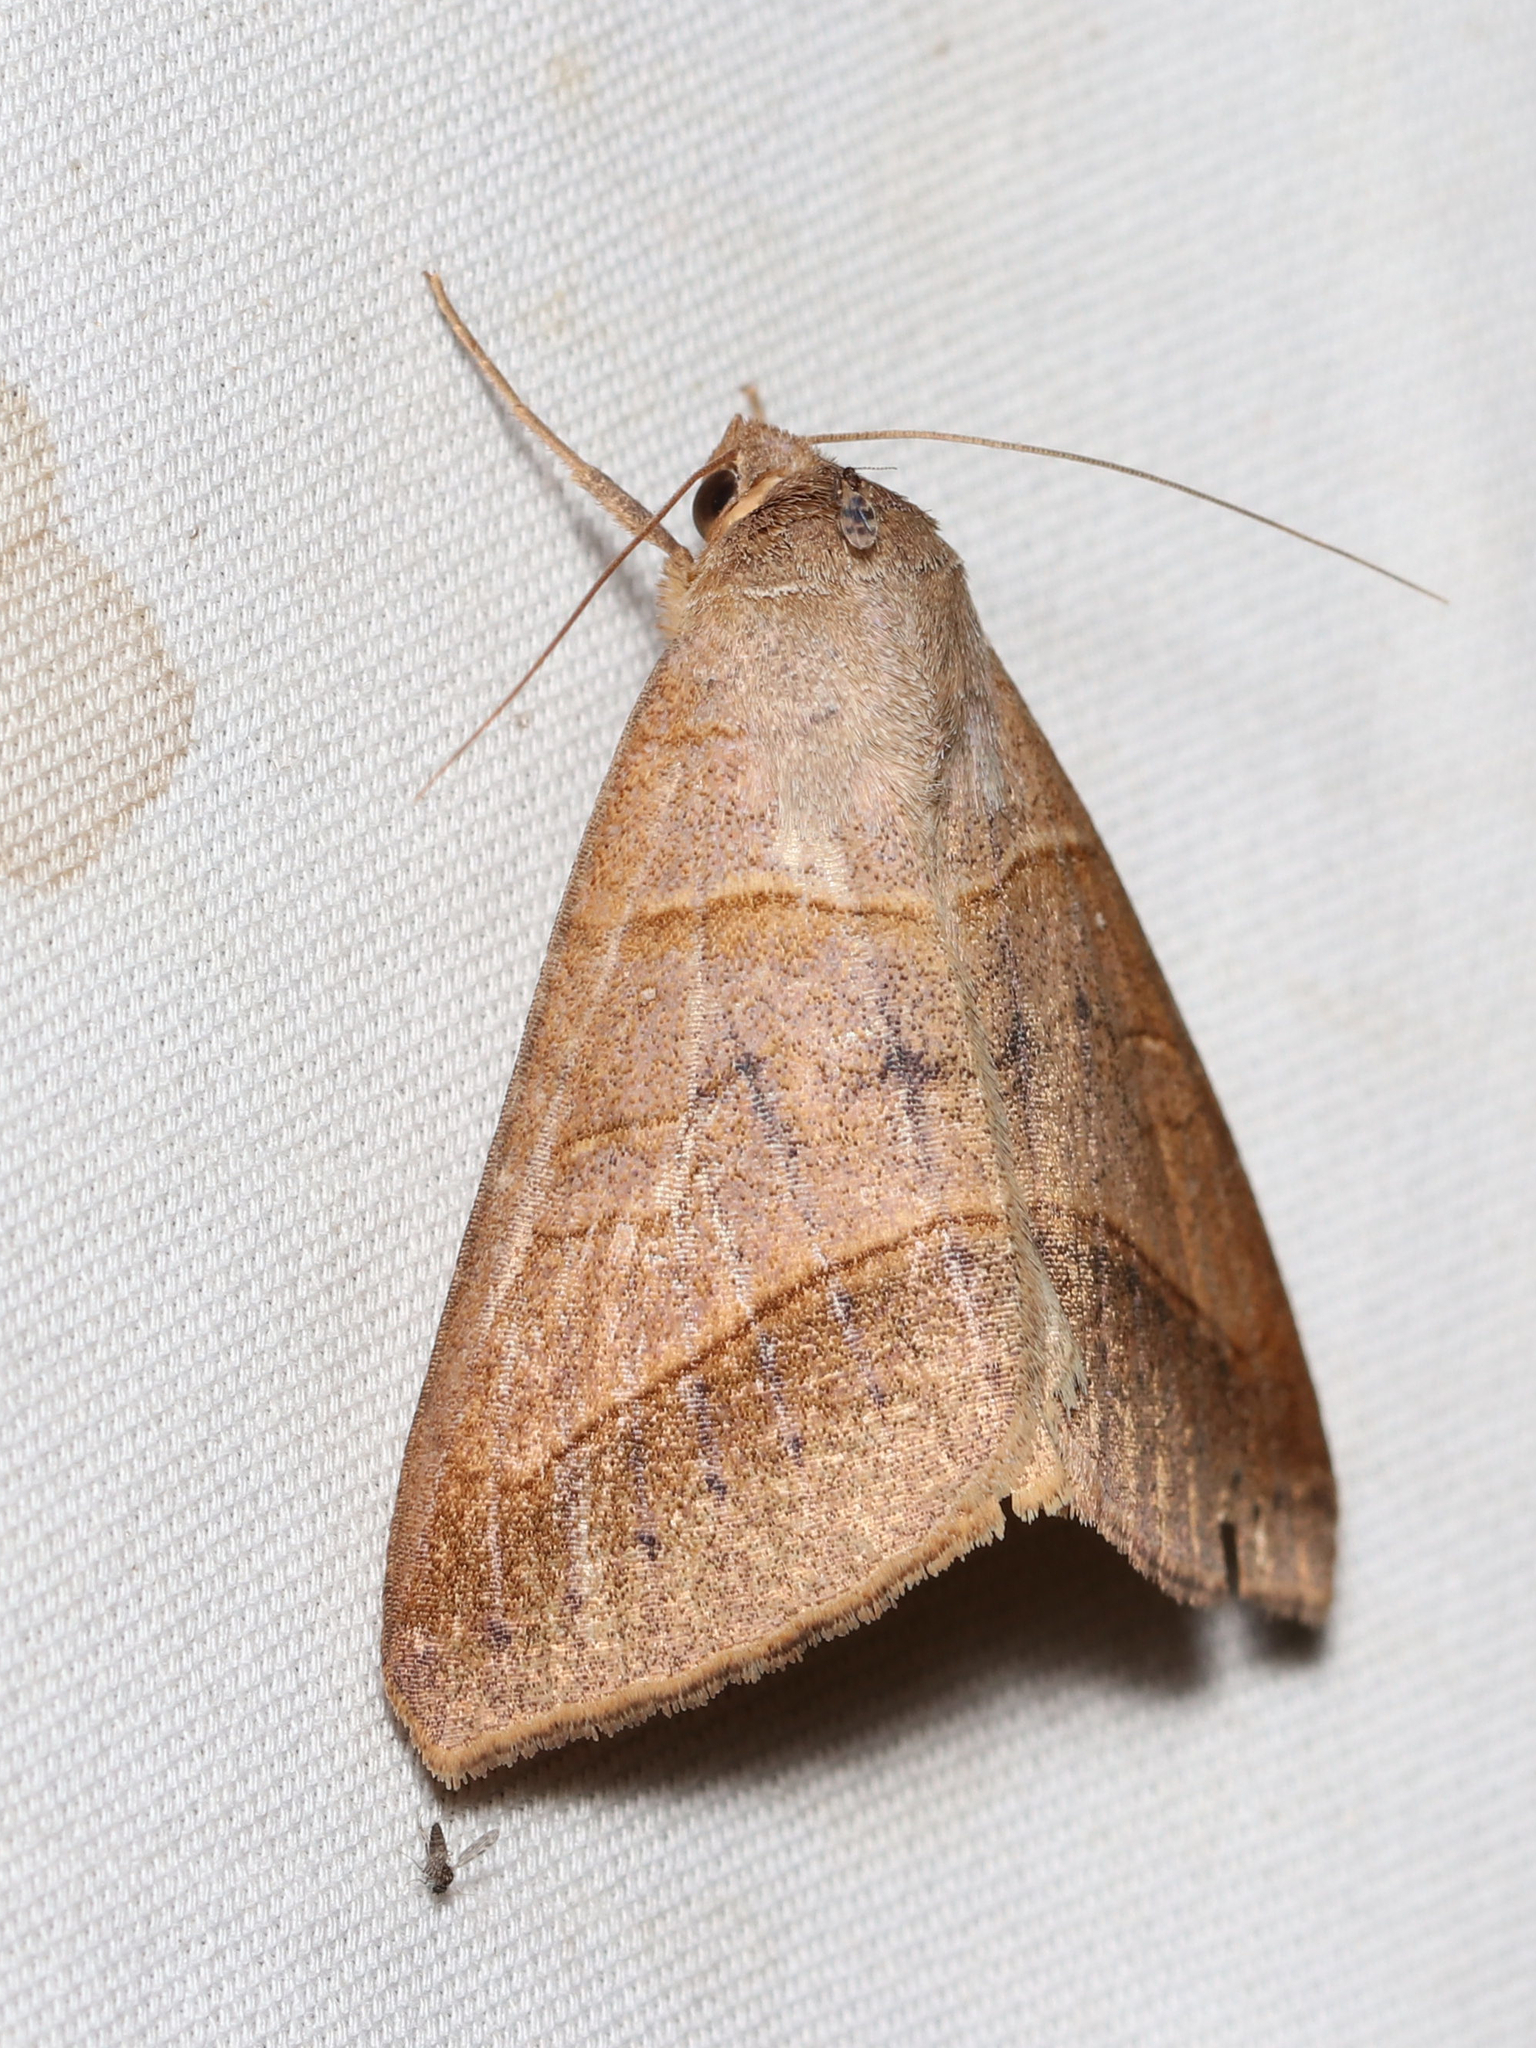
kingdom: Animalia
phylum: Arthropoda
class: Insecta
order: Lepidoptera
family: Erebidae
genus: Mocis
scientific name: Mocis texana
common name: Texas mocis moth
